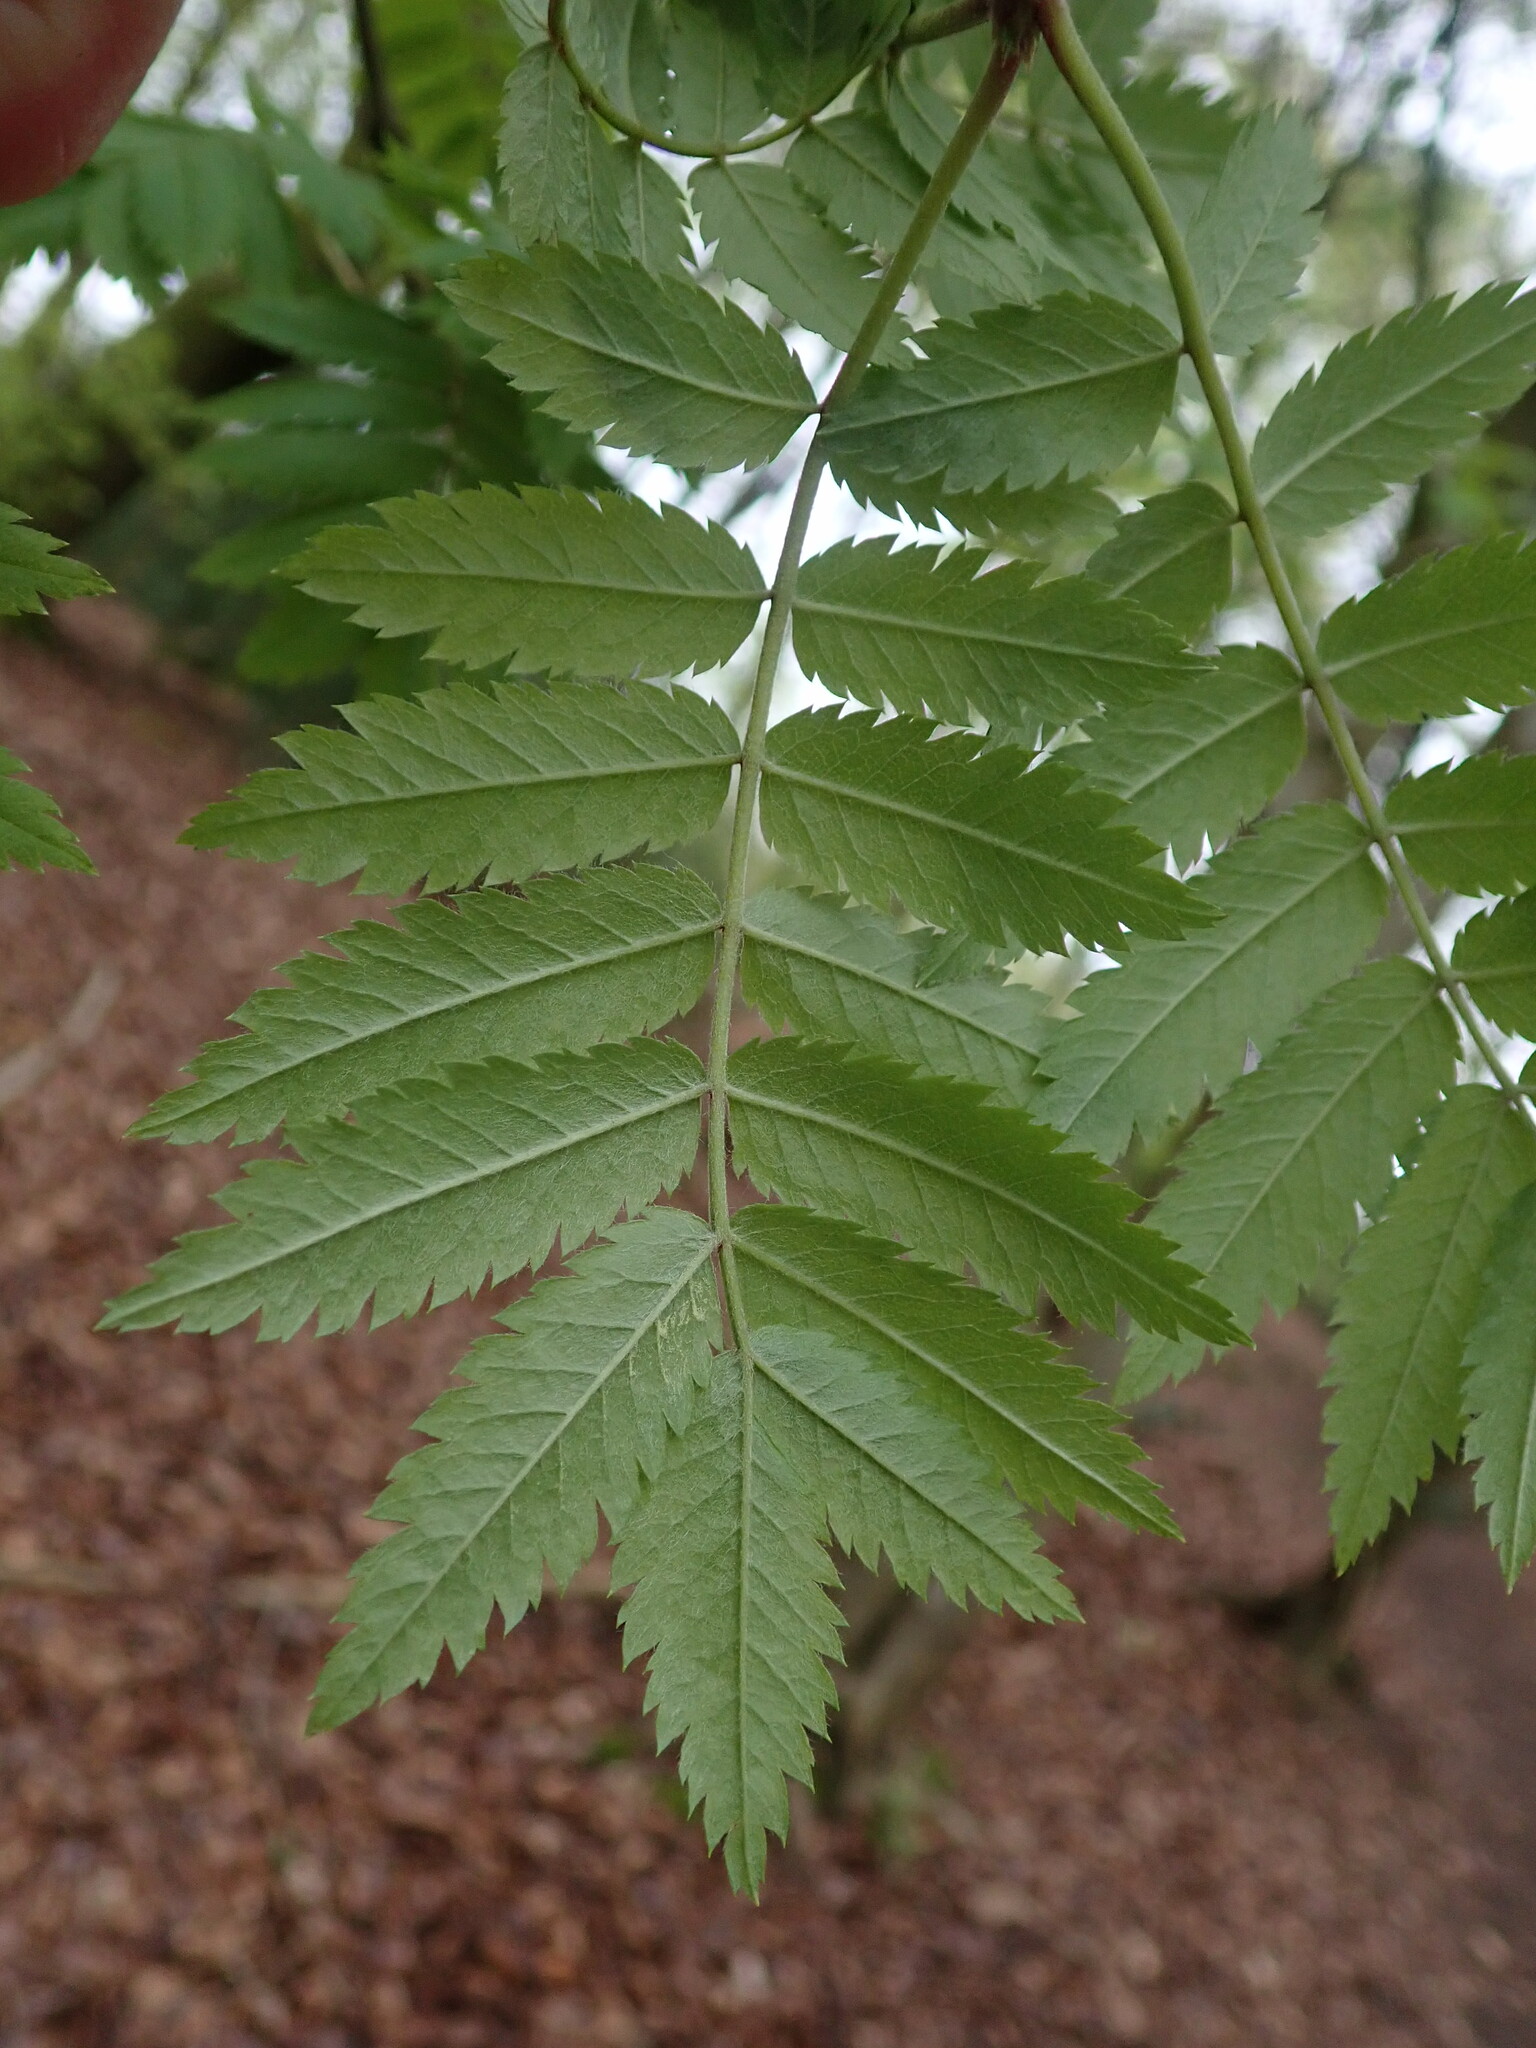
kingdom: Plantae
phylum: Tracheophyta
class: Magnoliopsida
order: Rosales
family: Rosaceae
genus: Sorbus
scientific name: Sorbus aucuparia
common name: Rowan
